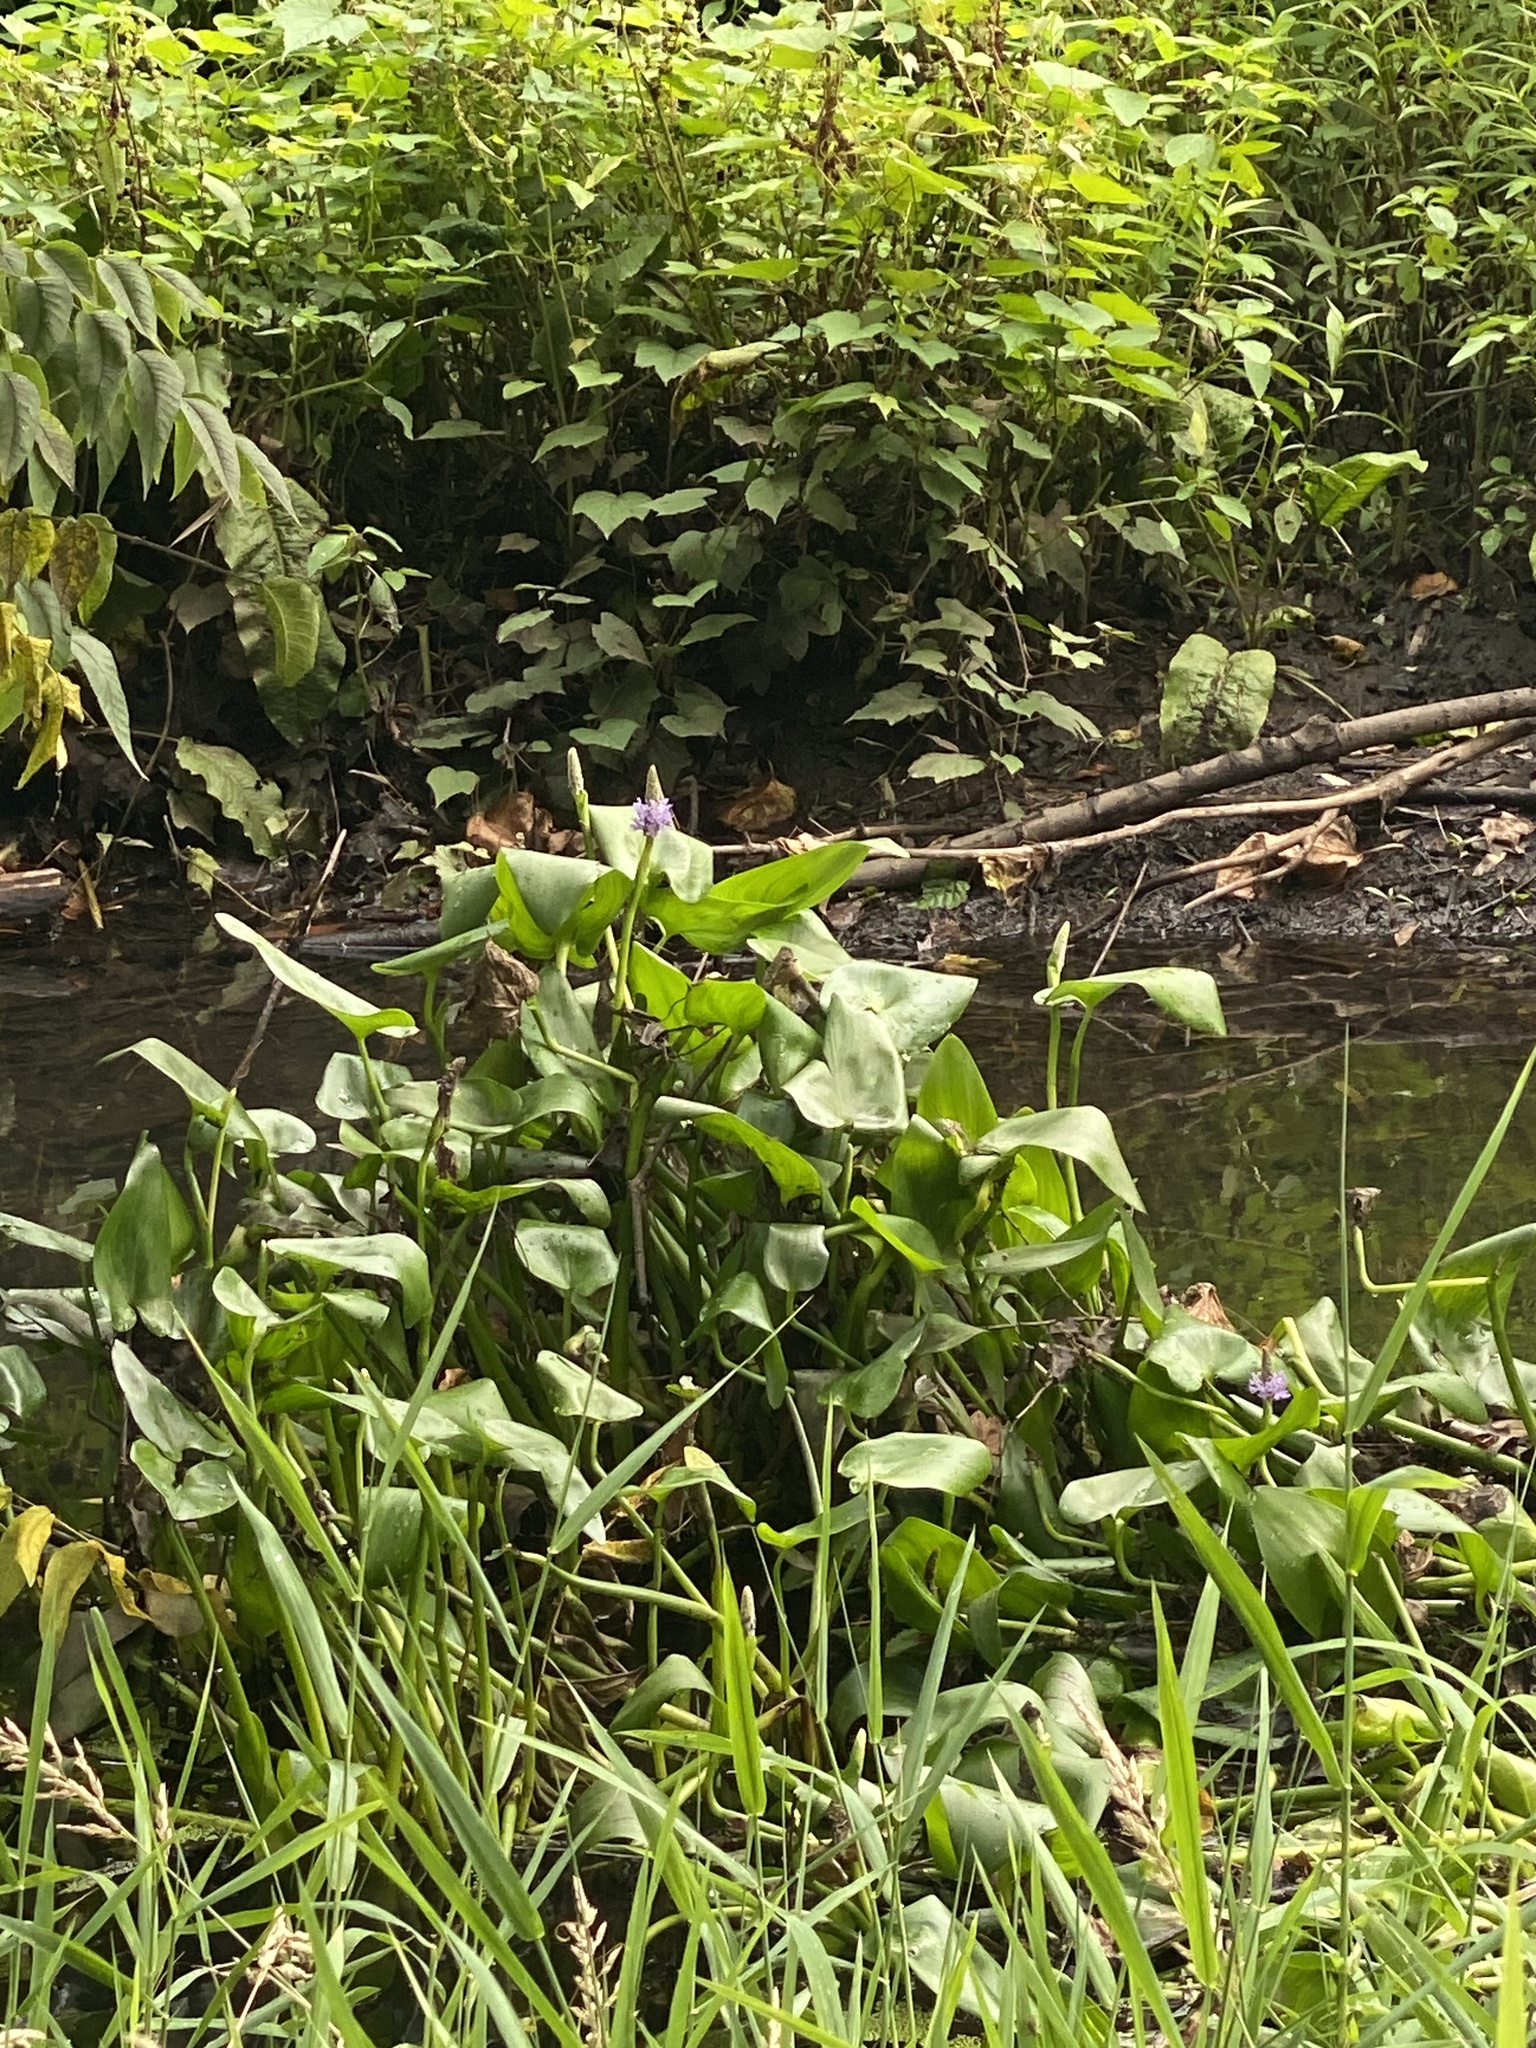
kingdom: Plantae
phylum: Tracheophyta
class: Liliopsida
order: Commelinales
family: Pontederiaceae
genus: Pontederia
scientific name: Pontederia cordata
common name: Pickerelweed
